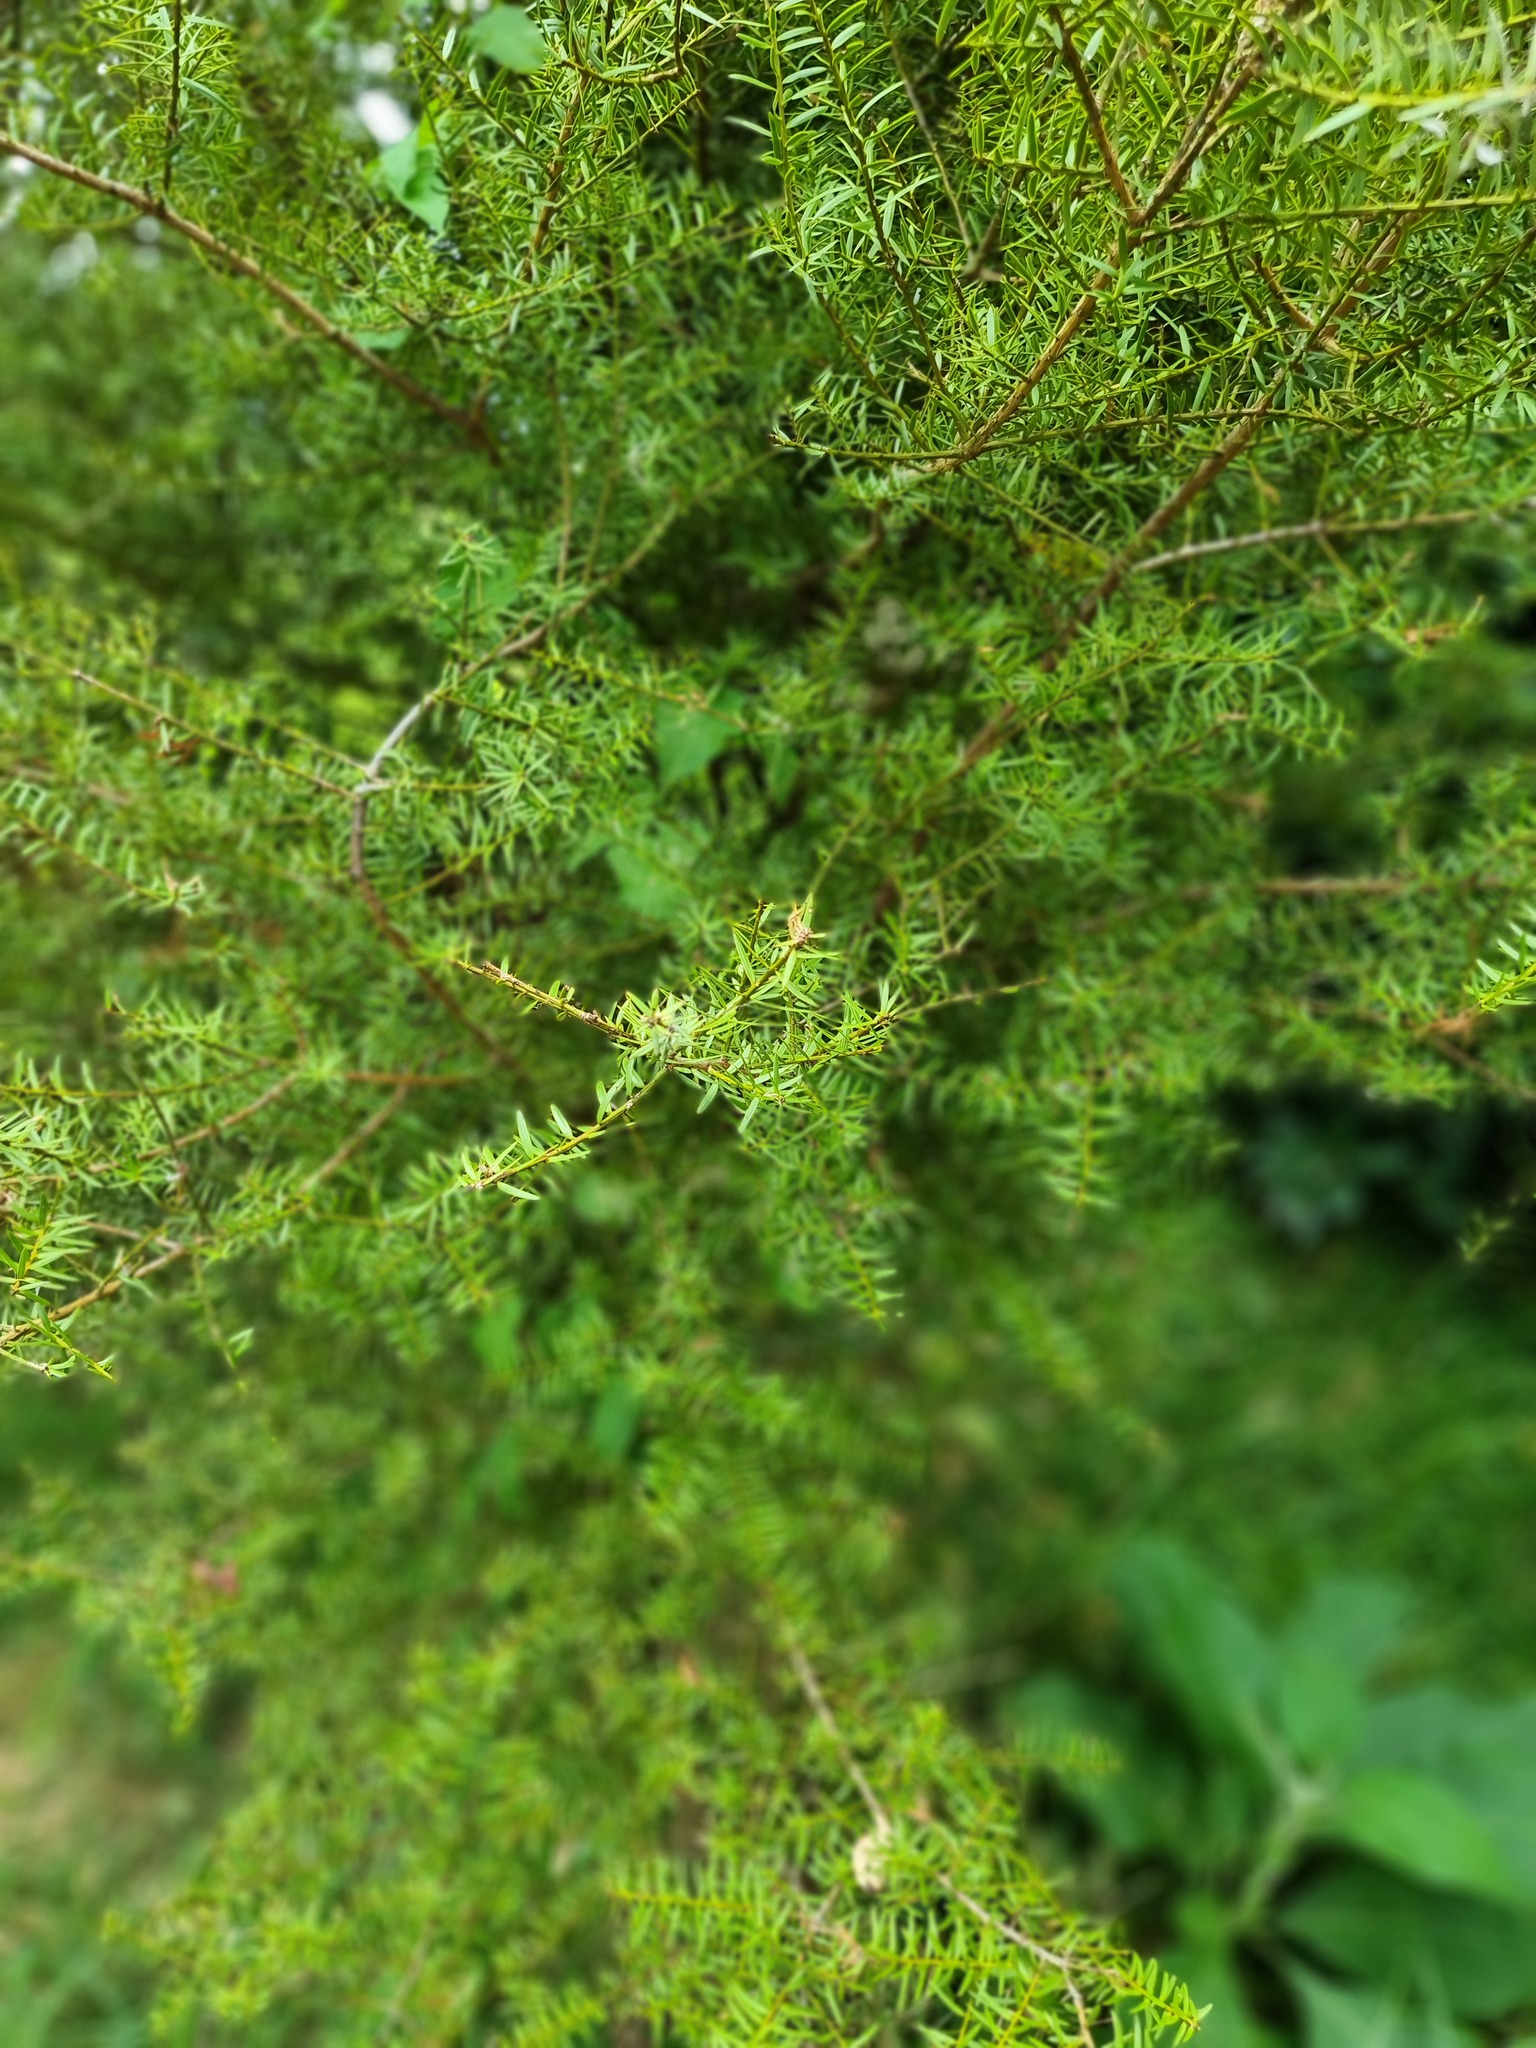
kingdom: Plantae
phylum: Tracheophyta
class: Pinopsida
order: Pinales
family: Podocarpaceae
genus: Podocarpus
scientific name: Podocarpus totara
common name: Totara
